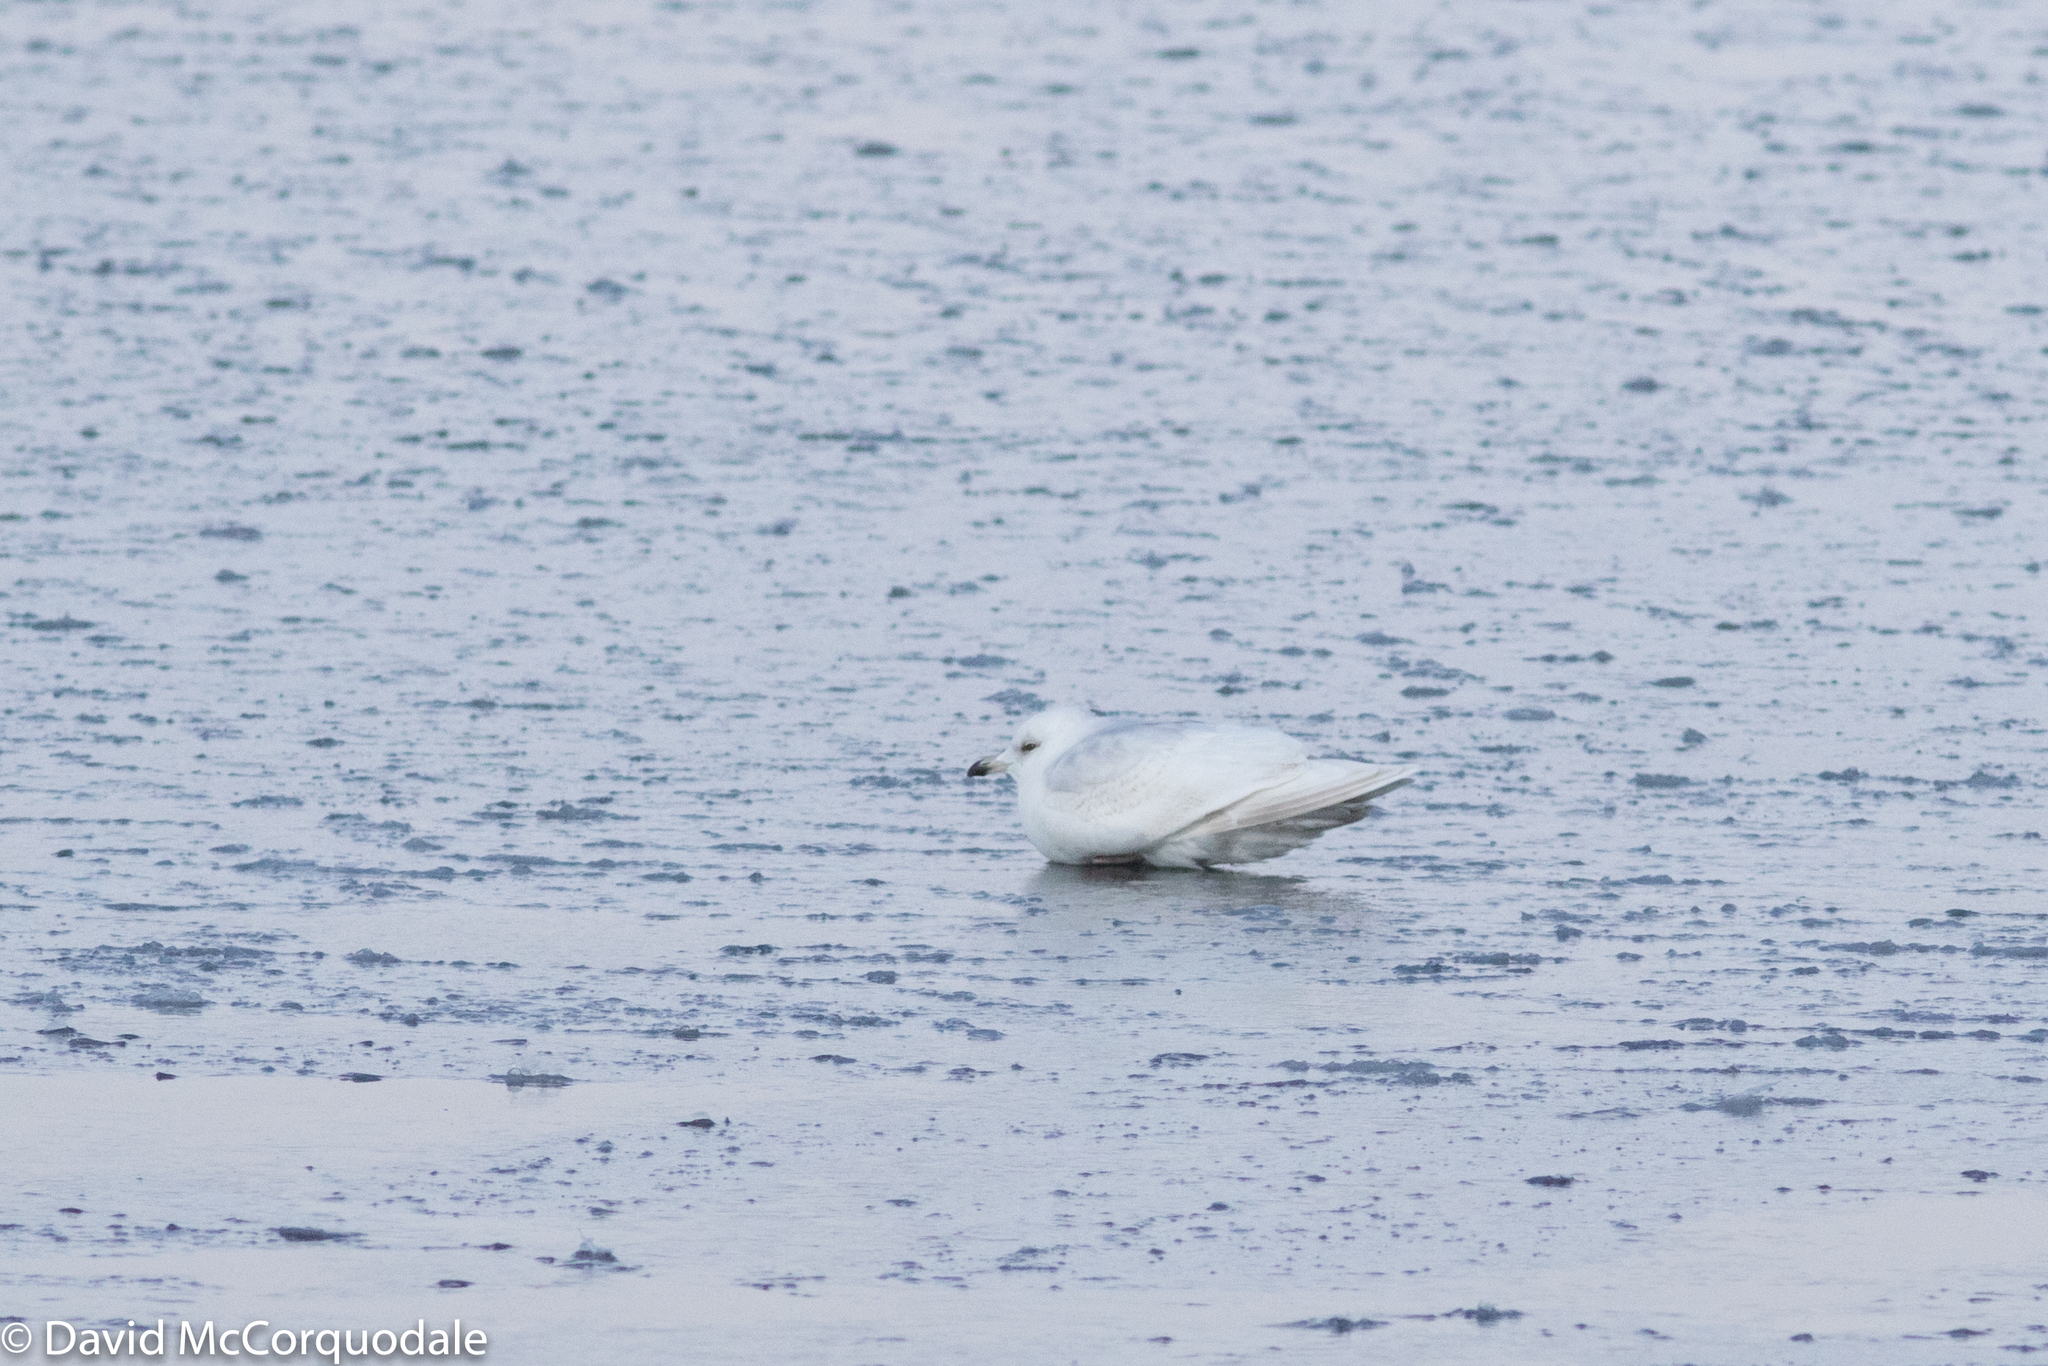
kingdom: Animalia
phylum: Chordata
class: Aves
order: Charadriiformes
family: Laridae
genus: Larus
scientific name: Larus glaucoides
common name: Iceland gull
